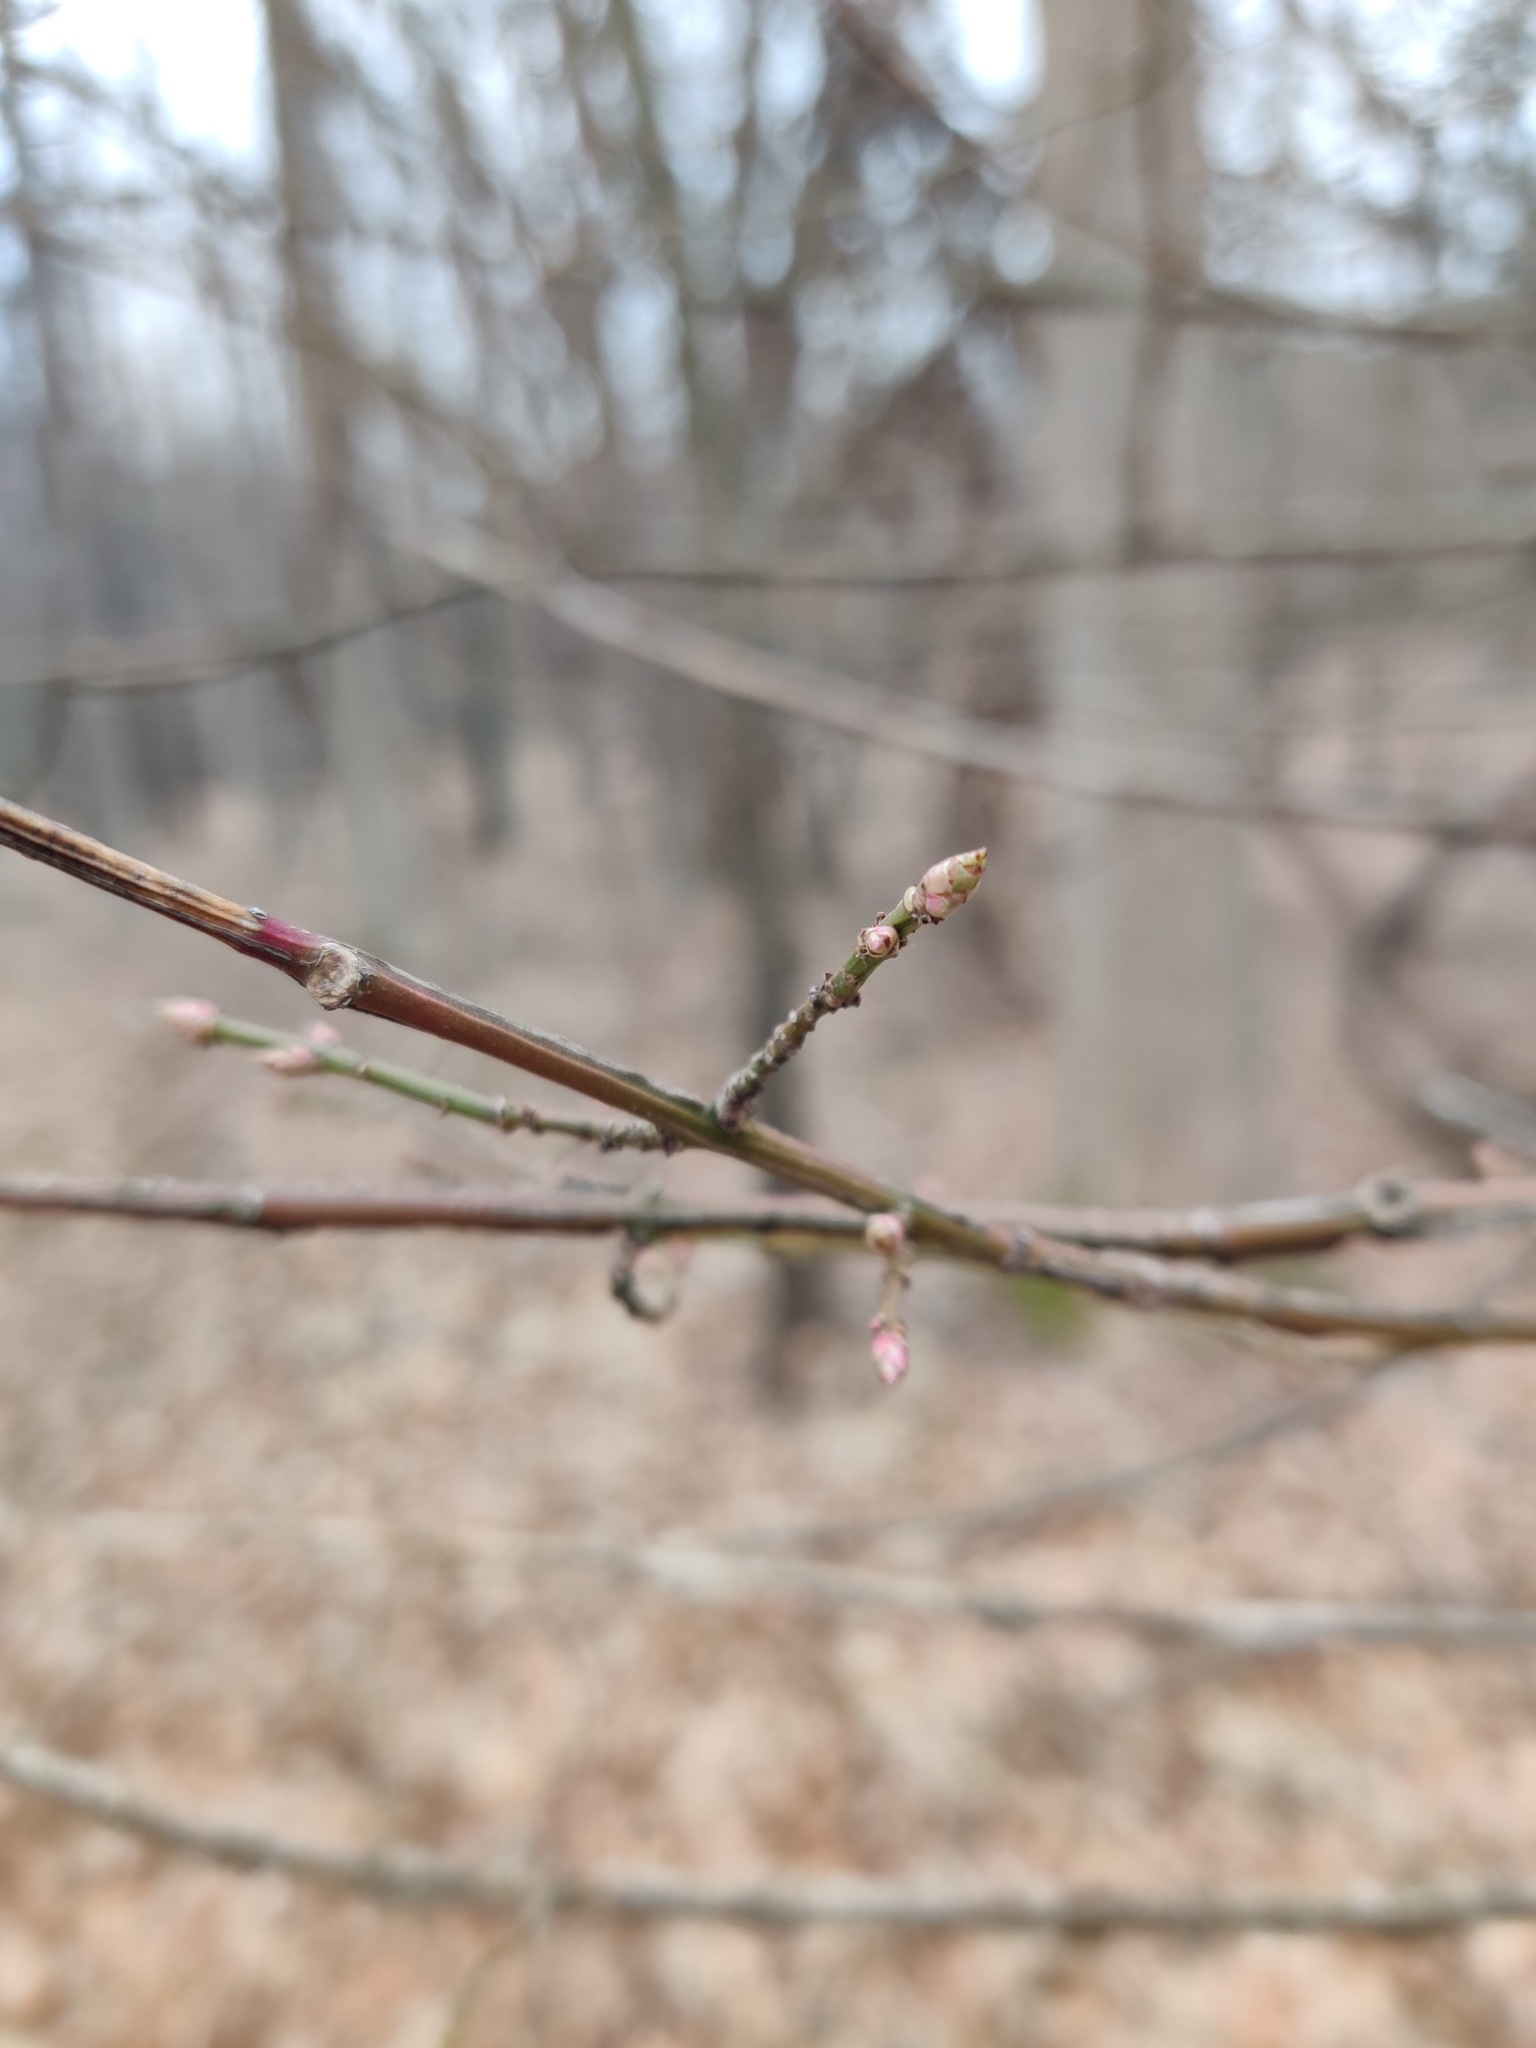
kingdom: Plantae
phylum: Tracheophyta
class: Magnoliopsida
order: Celastrales
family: Celastraceae
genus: Euonymus
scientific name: Euonymus alatus
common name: Winged euonymus
